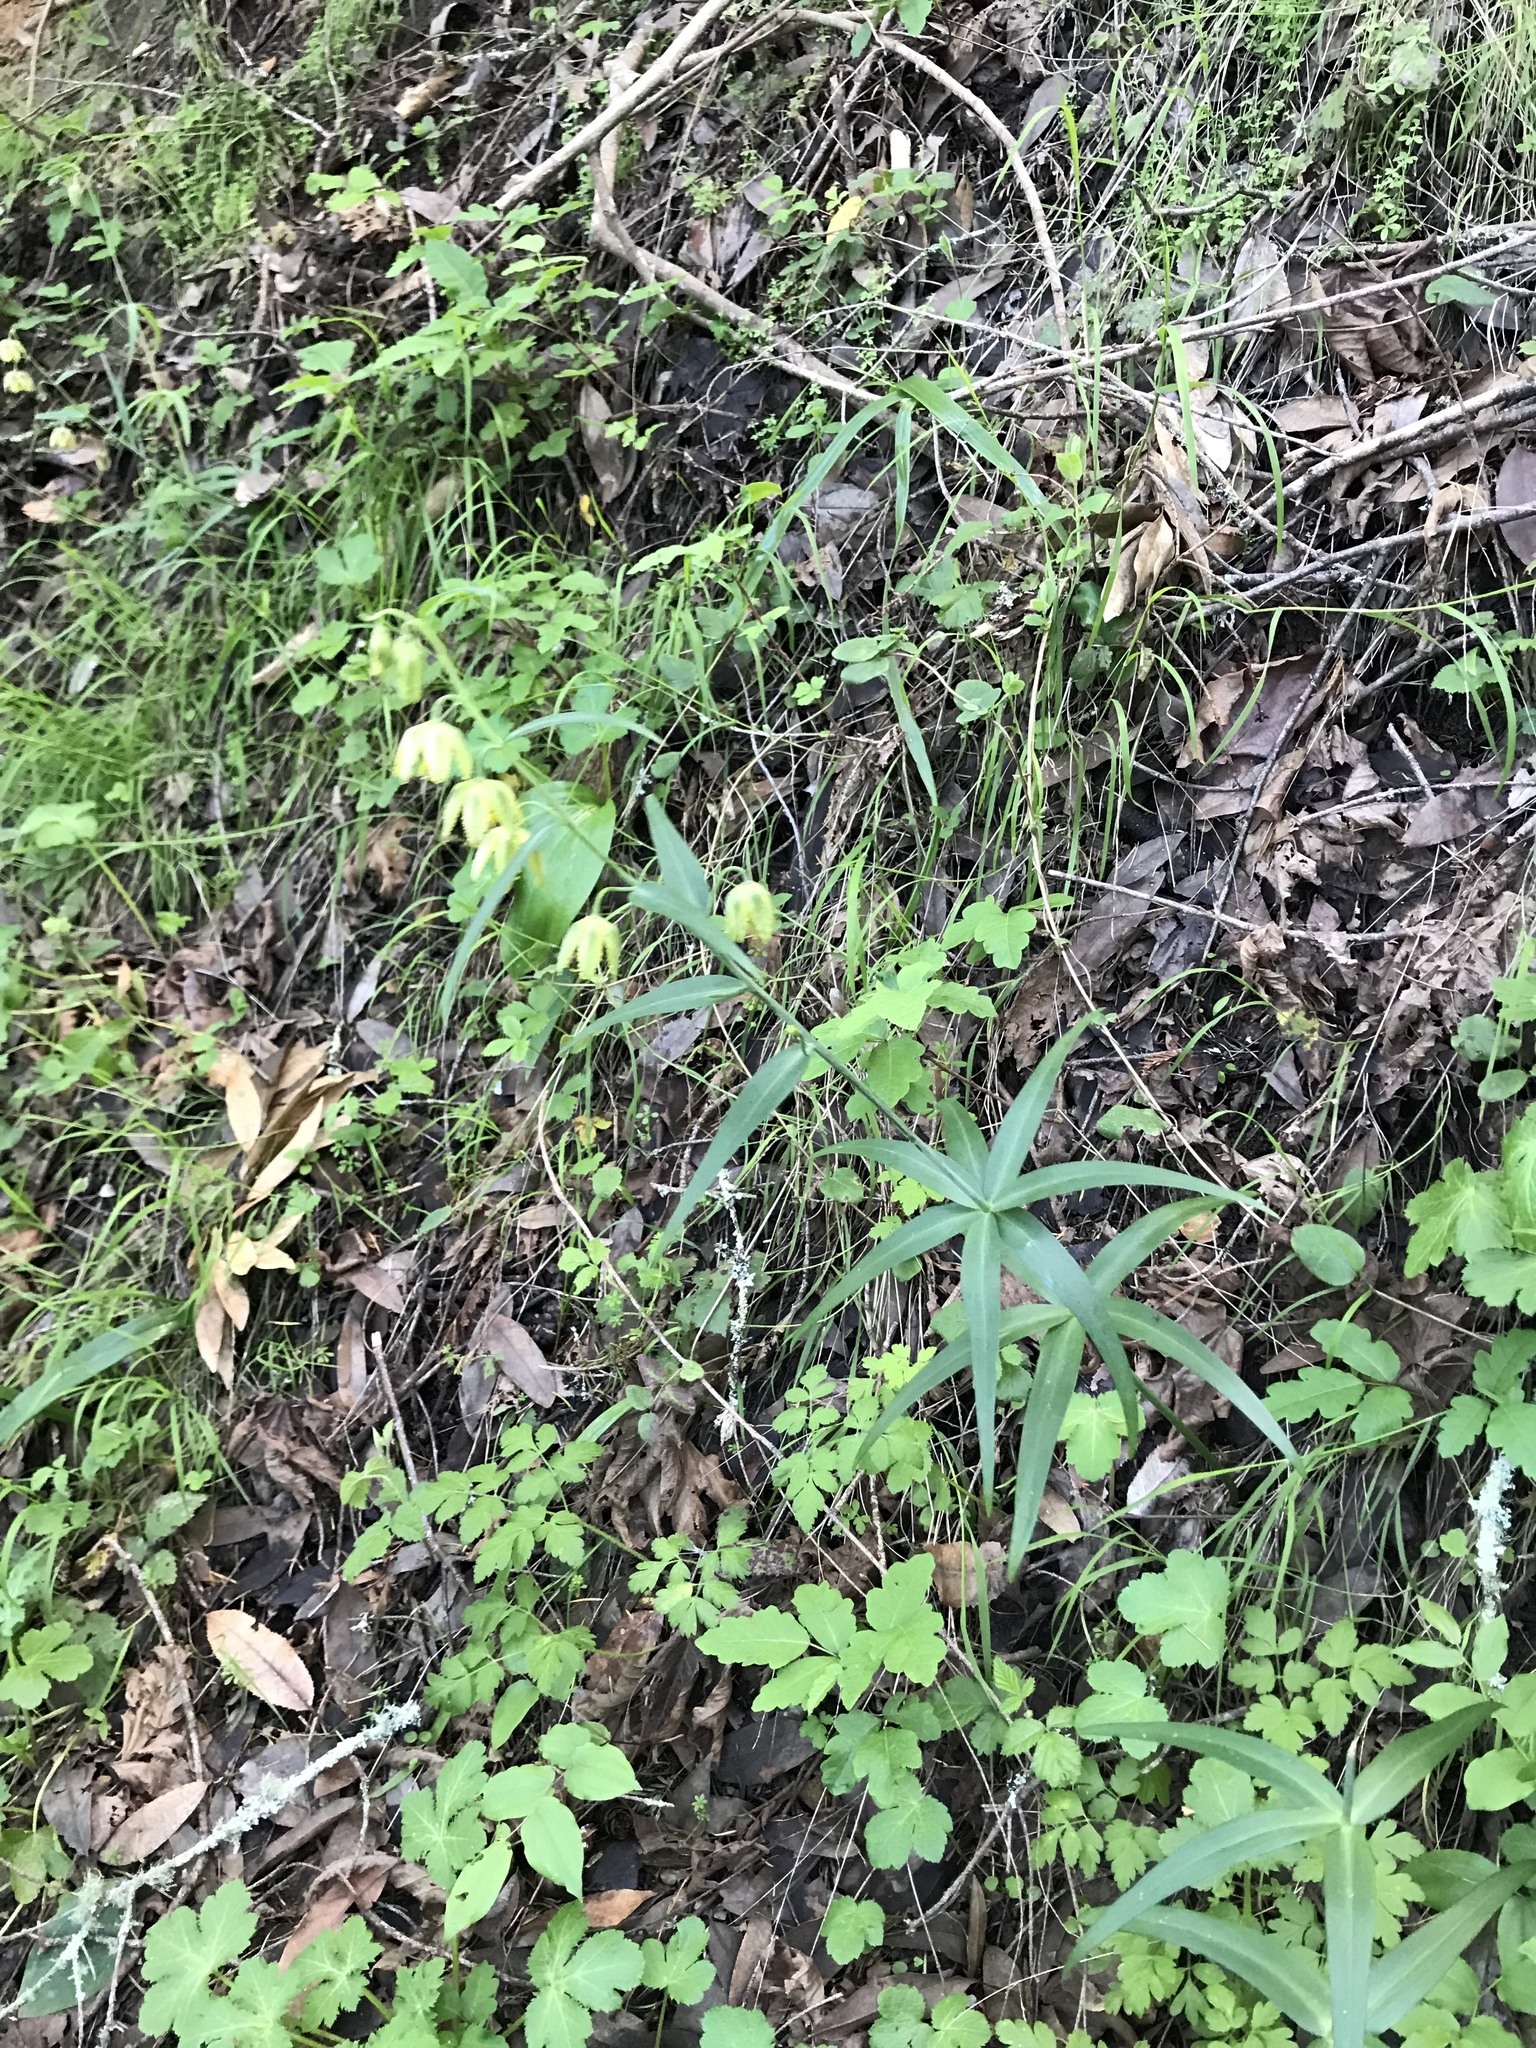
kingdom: Plantae
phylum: Tracheophyta
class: Liliopsida
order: Liliales
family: Liliaceae
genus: Fritillaria
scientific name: Fritillaria affinis
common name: Ojai fritillary
